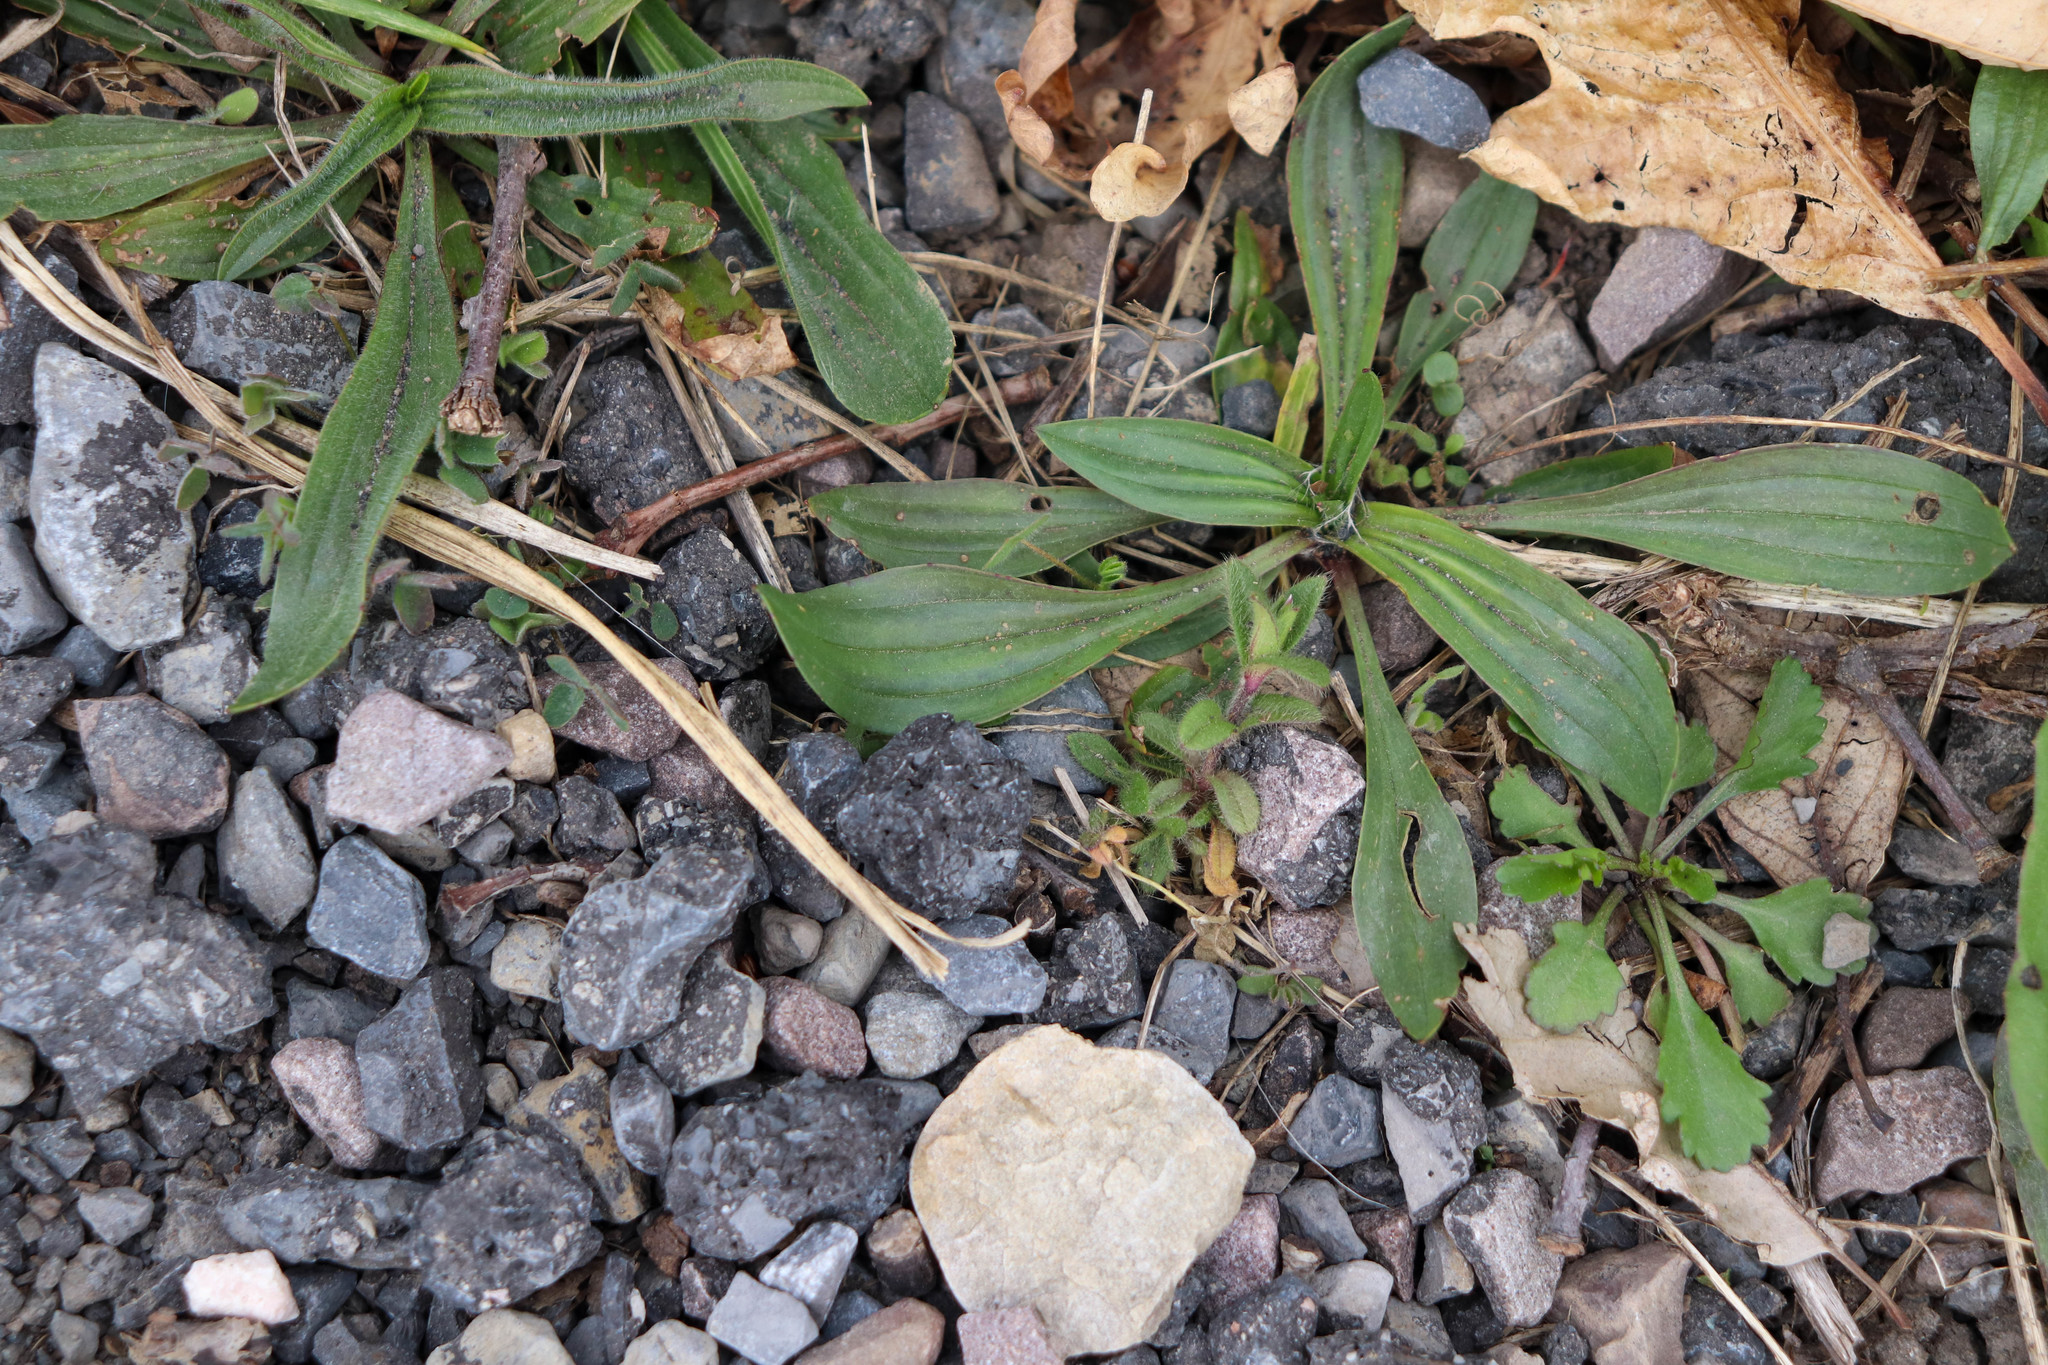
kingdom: Plantae
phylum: Tracheophyta
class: Magnoliopsida
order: Lamiales
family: Plantaginaceae
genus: Plantago
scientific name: Plantago lanceolata
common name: Ribwort plantain
